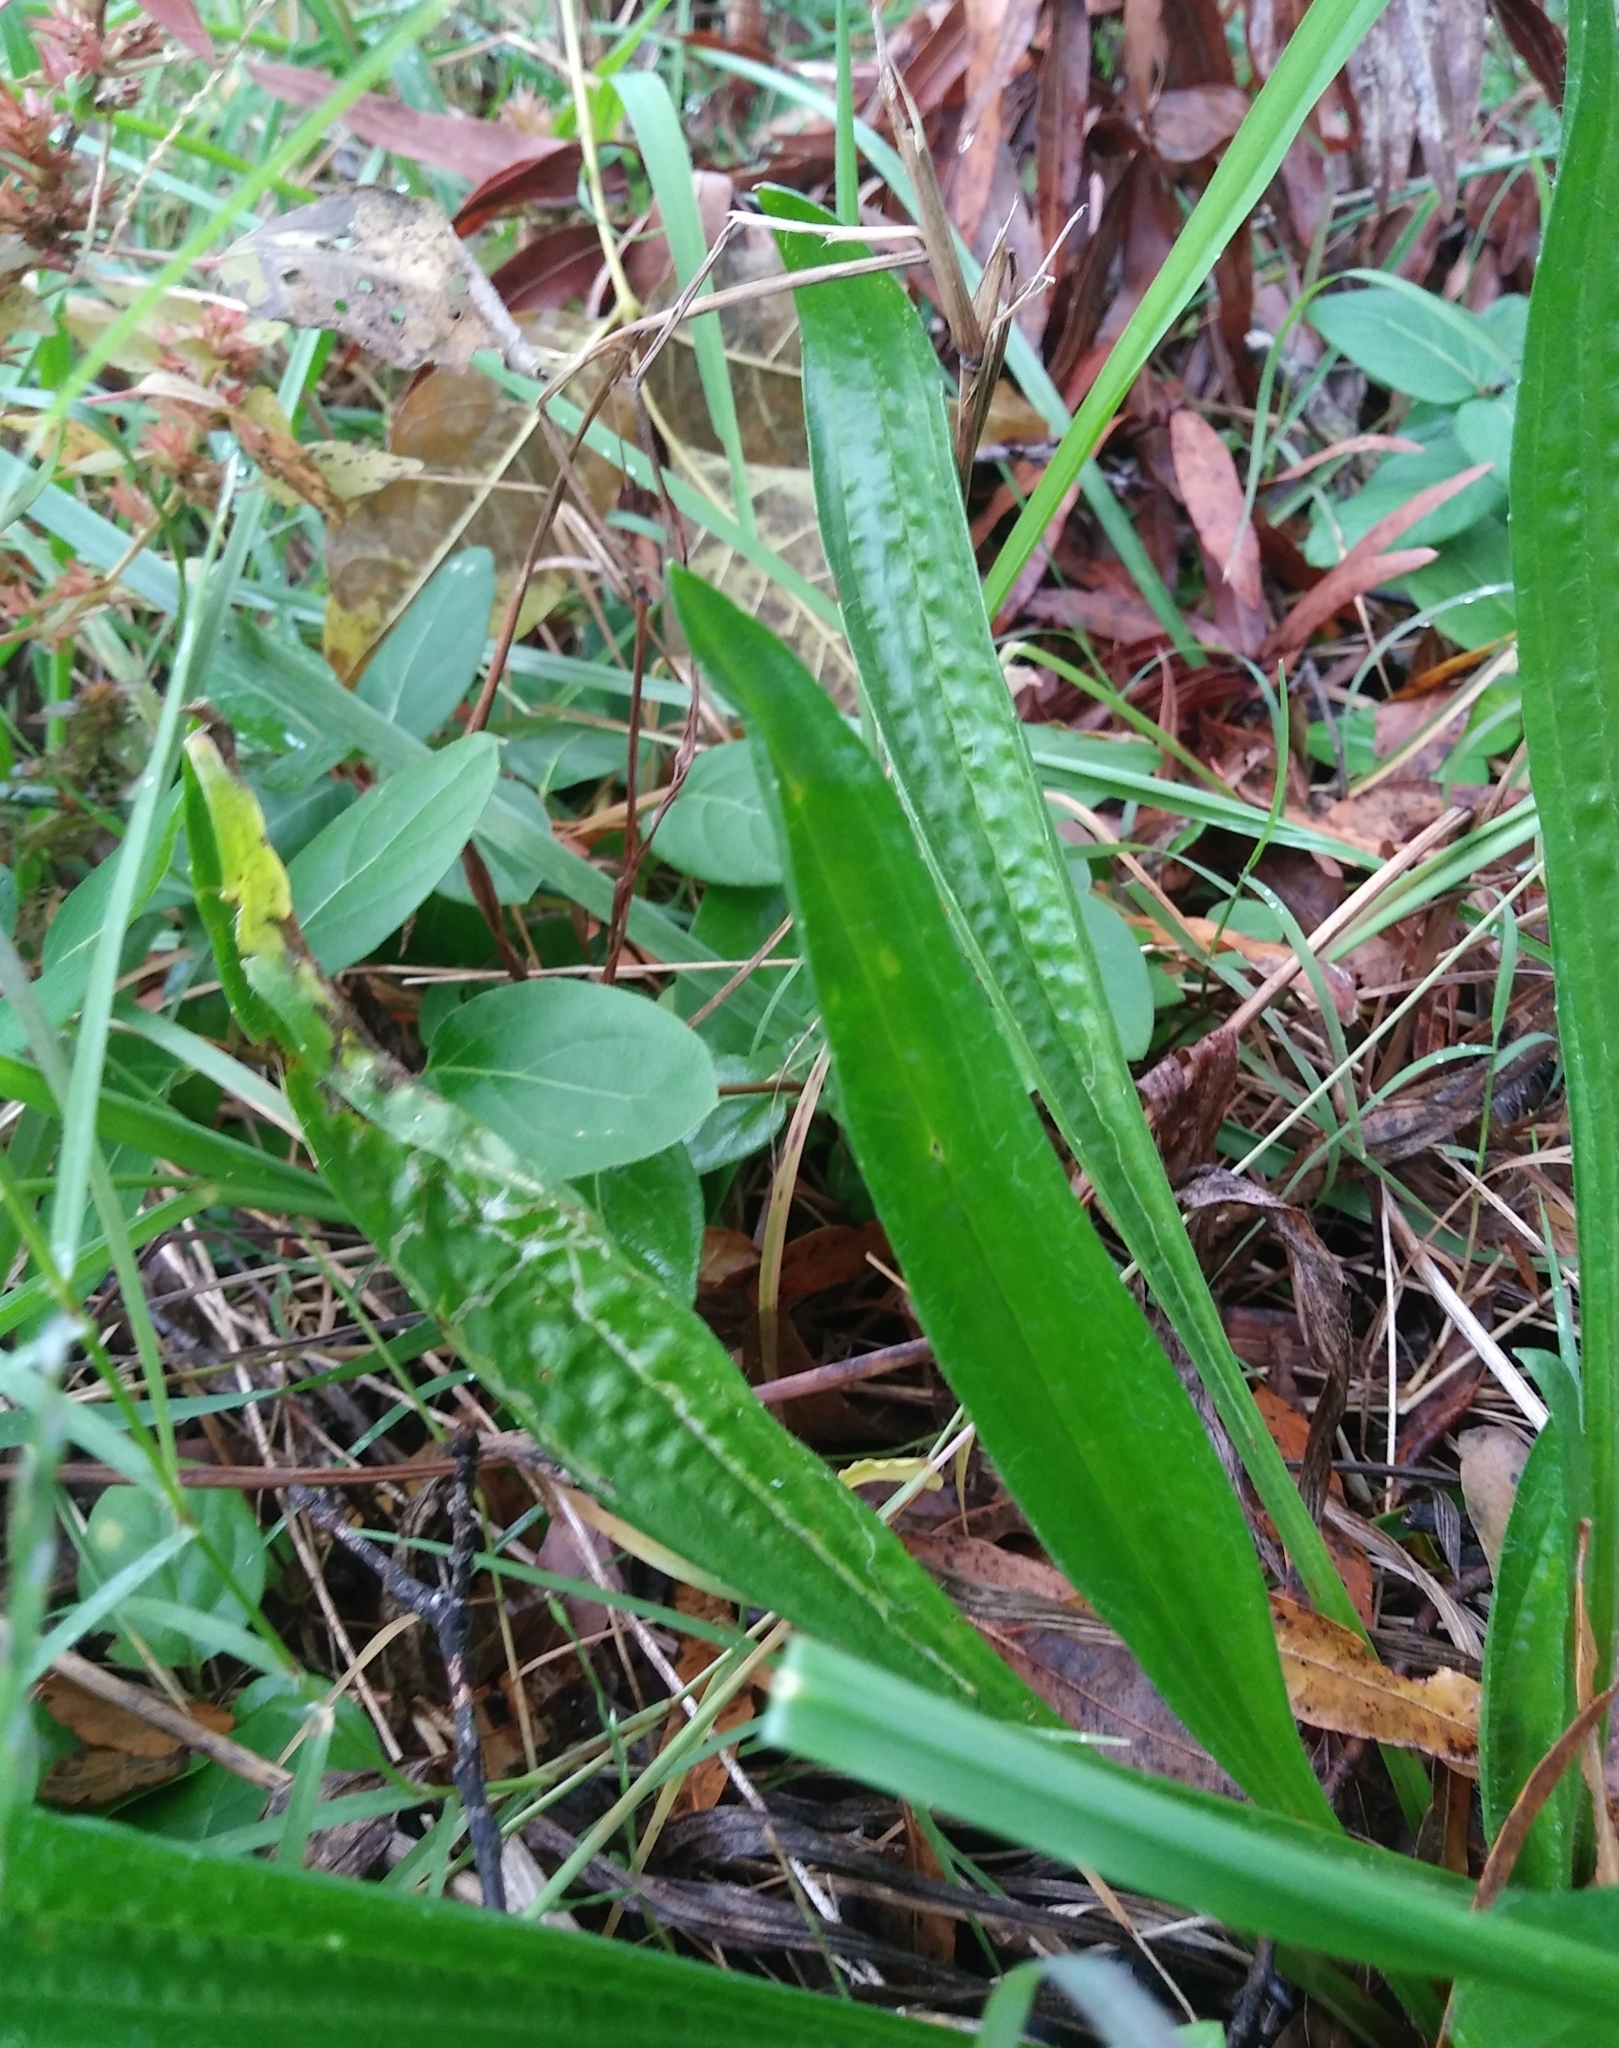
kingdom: Plantae
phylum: Tracheophyta
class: Magnoliopsida
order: Lamiales
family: Plantaginaceae
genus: Plantago
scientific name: Plantago lanceolata
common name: Ribwort plantain
